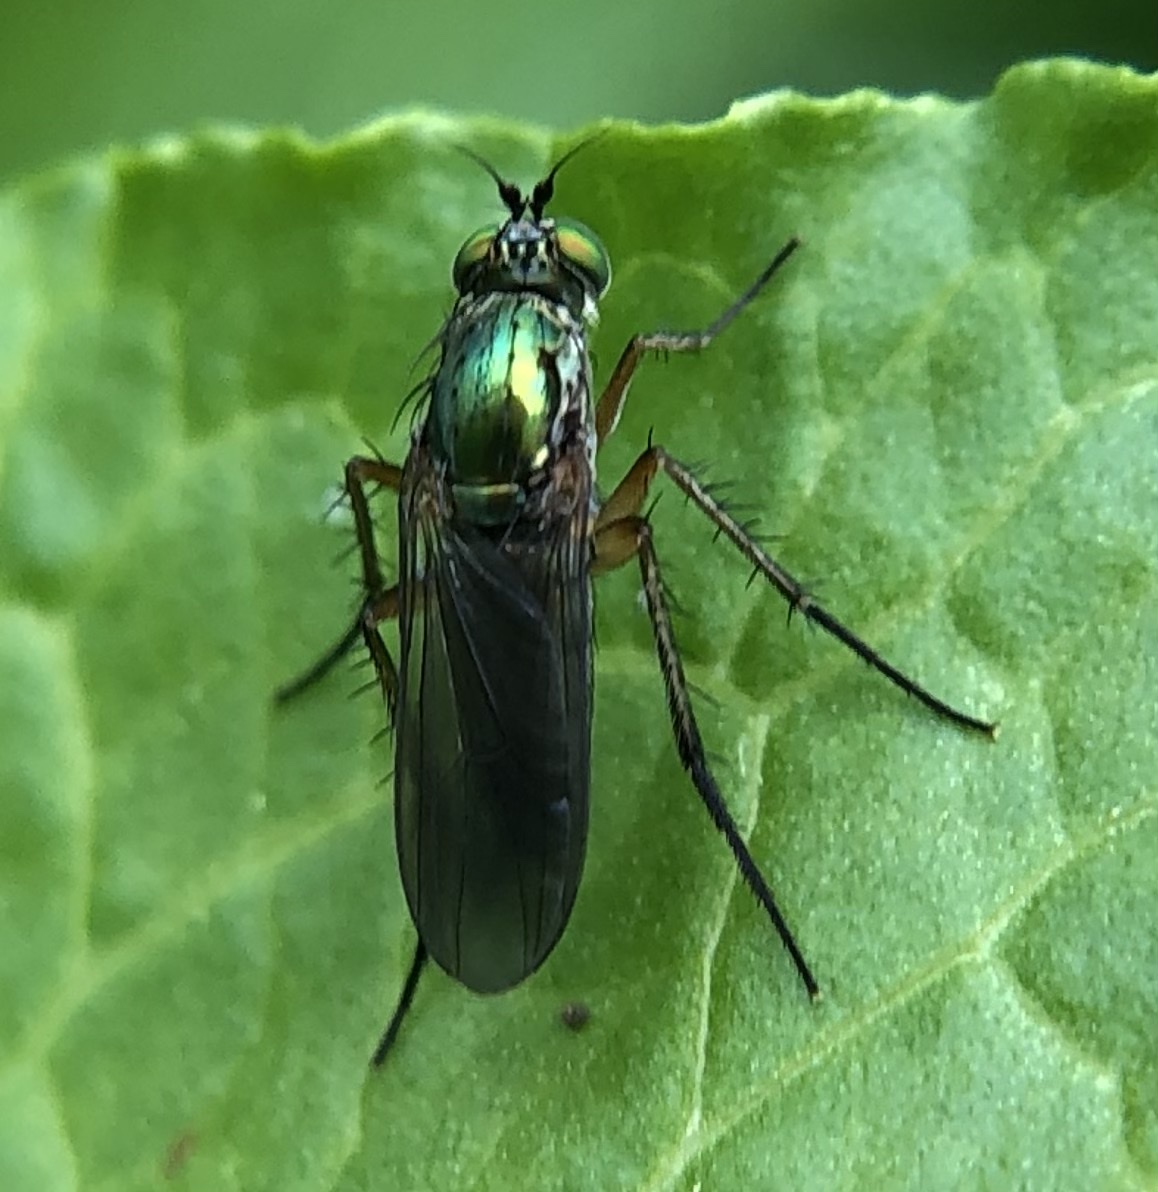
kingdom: Animalia
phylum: Arthropoda
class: Insecta
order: Diptera
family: Dolichopodidae
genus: Poecilobothrus
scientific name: Poecilobothrus nobilitatus
